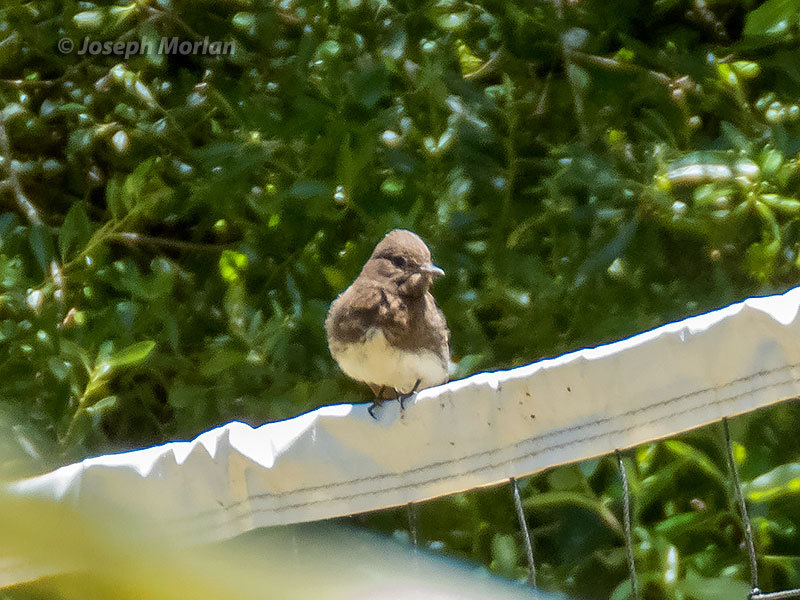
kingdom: Animalia
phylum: Chordata
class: Aves
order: Passeriformes
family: Tyrannidae
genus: Sayornis
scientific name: Sayornis nigricans
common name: Black phoebe
